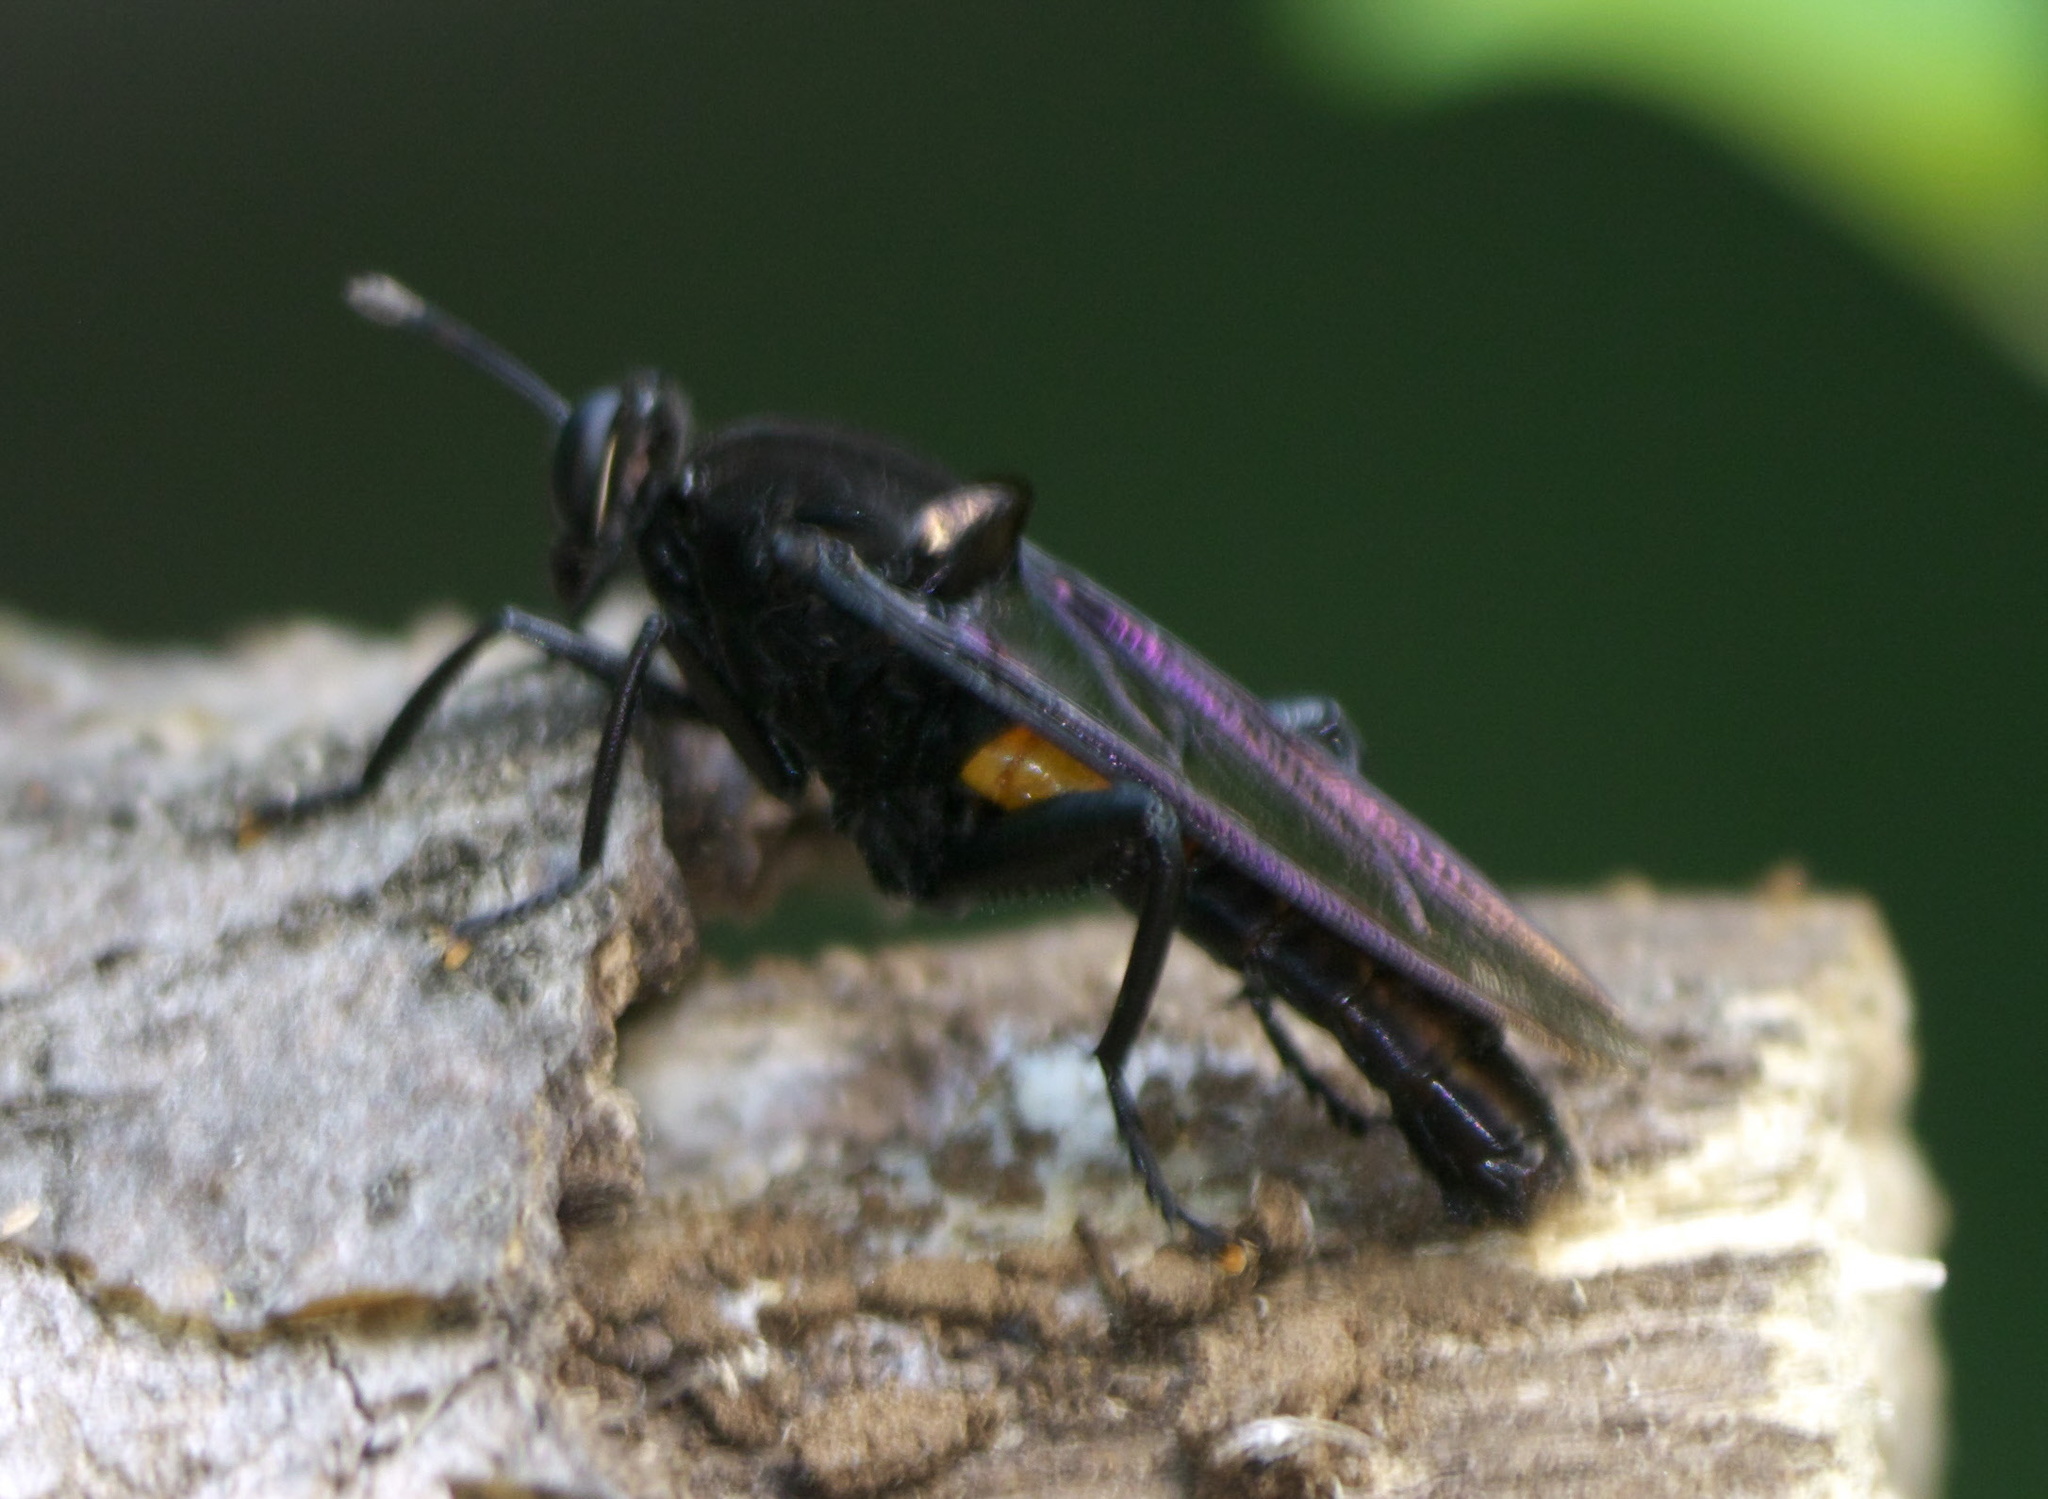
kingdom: Animalia
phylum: Arthropoda
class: Insecta
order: Diptera
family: Mydidae
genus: Mydas
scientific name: Mydas clavatus
